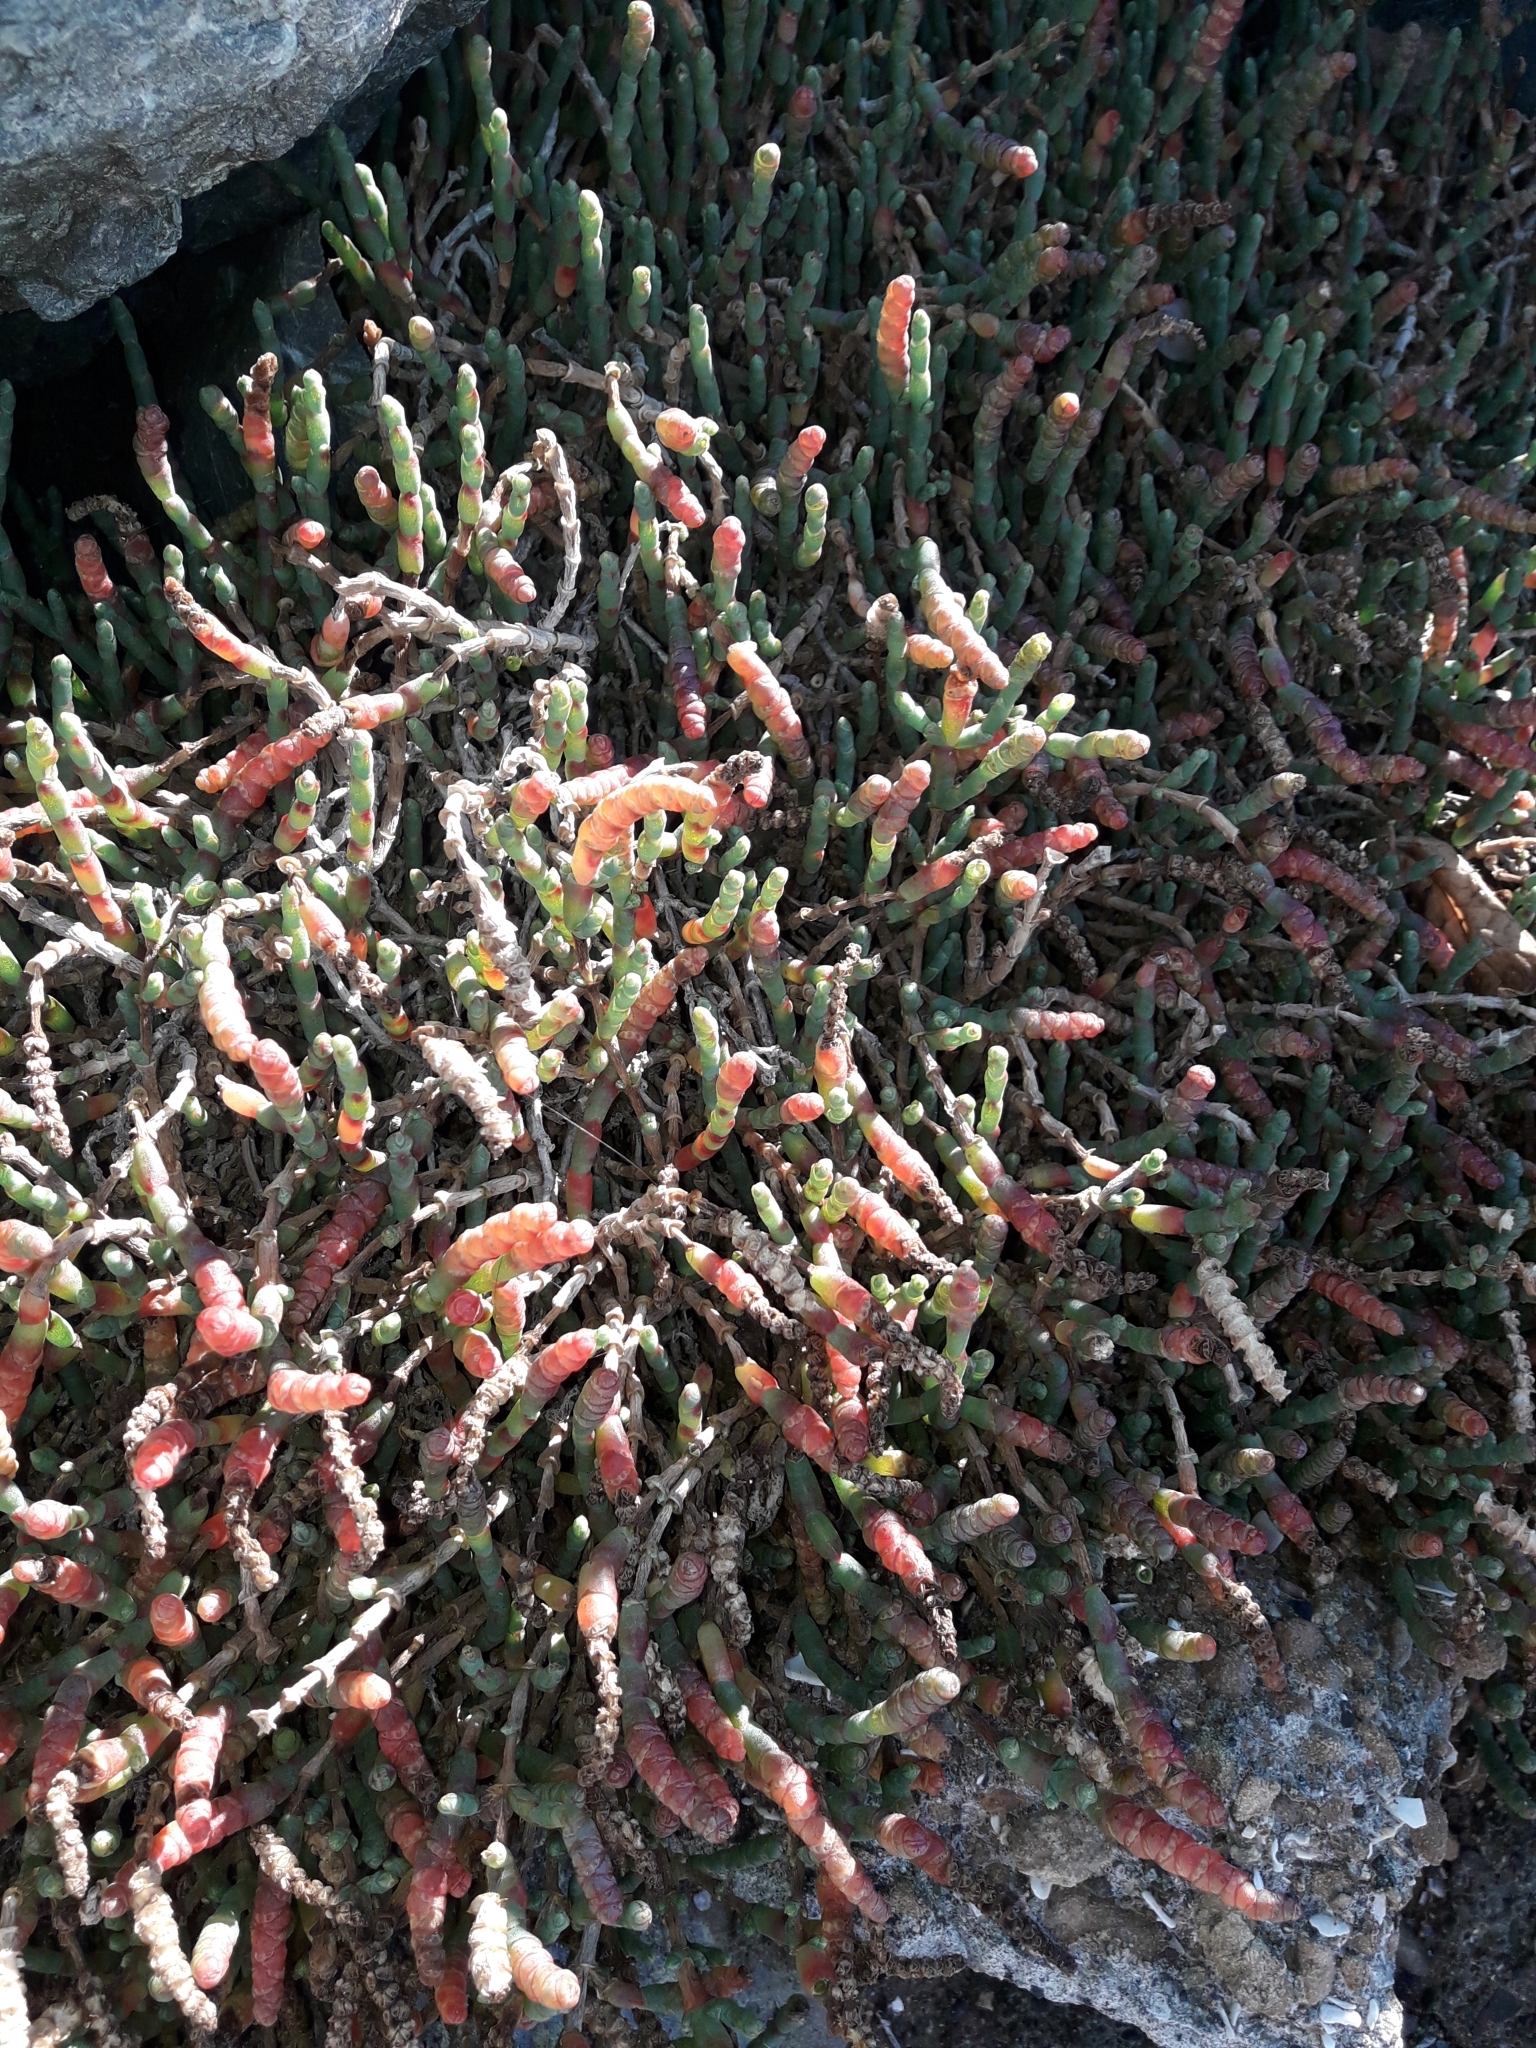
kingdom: Plantae
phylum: Tracheophyta
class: Magnoliopsida
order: Caryophyllales
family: Amaranthaceae
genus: Salicornia
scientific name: Salicornia quinqueflora
